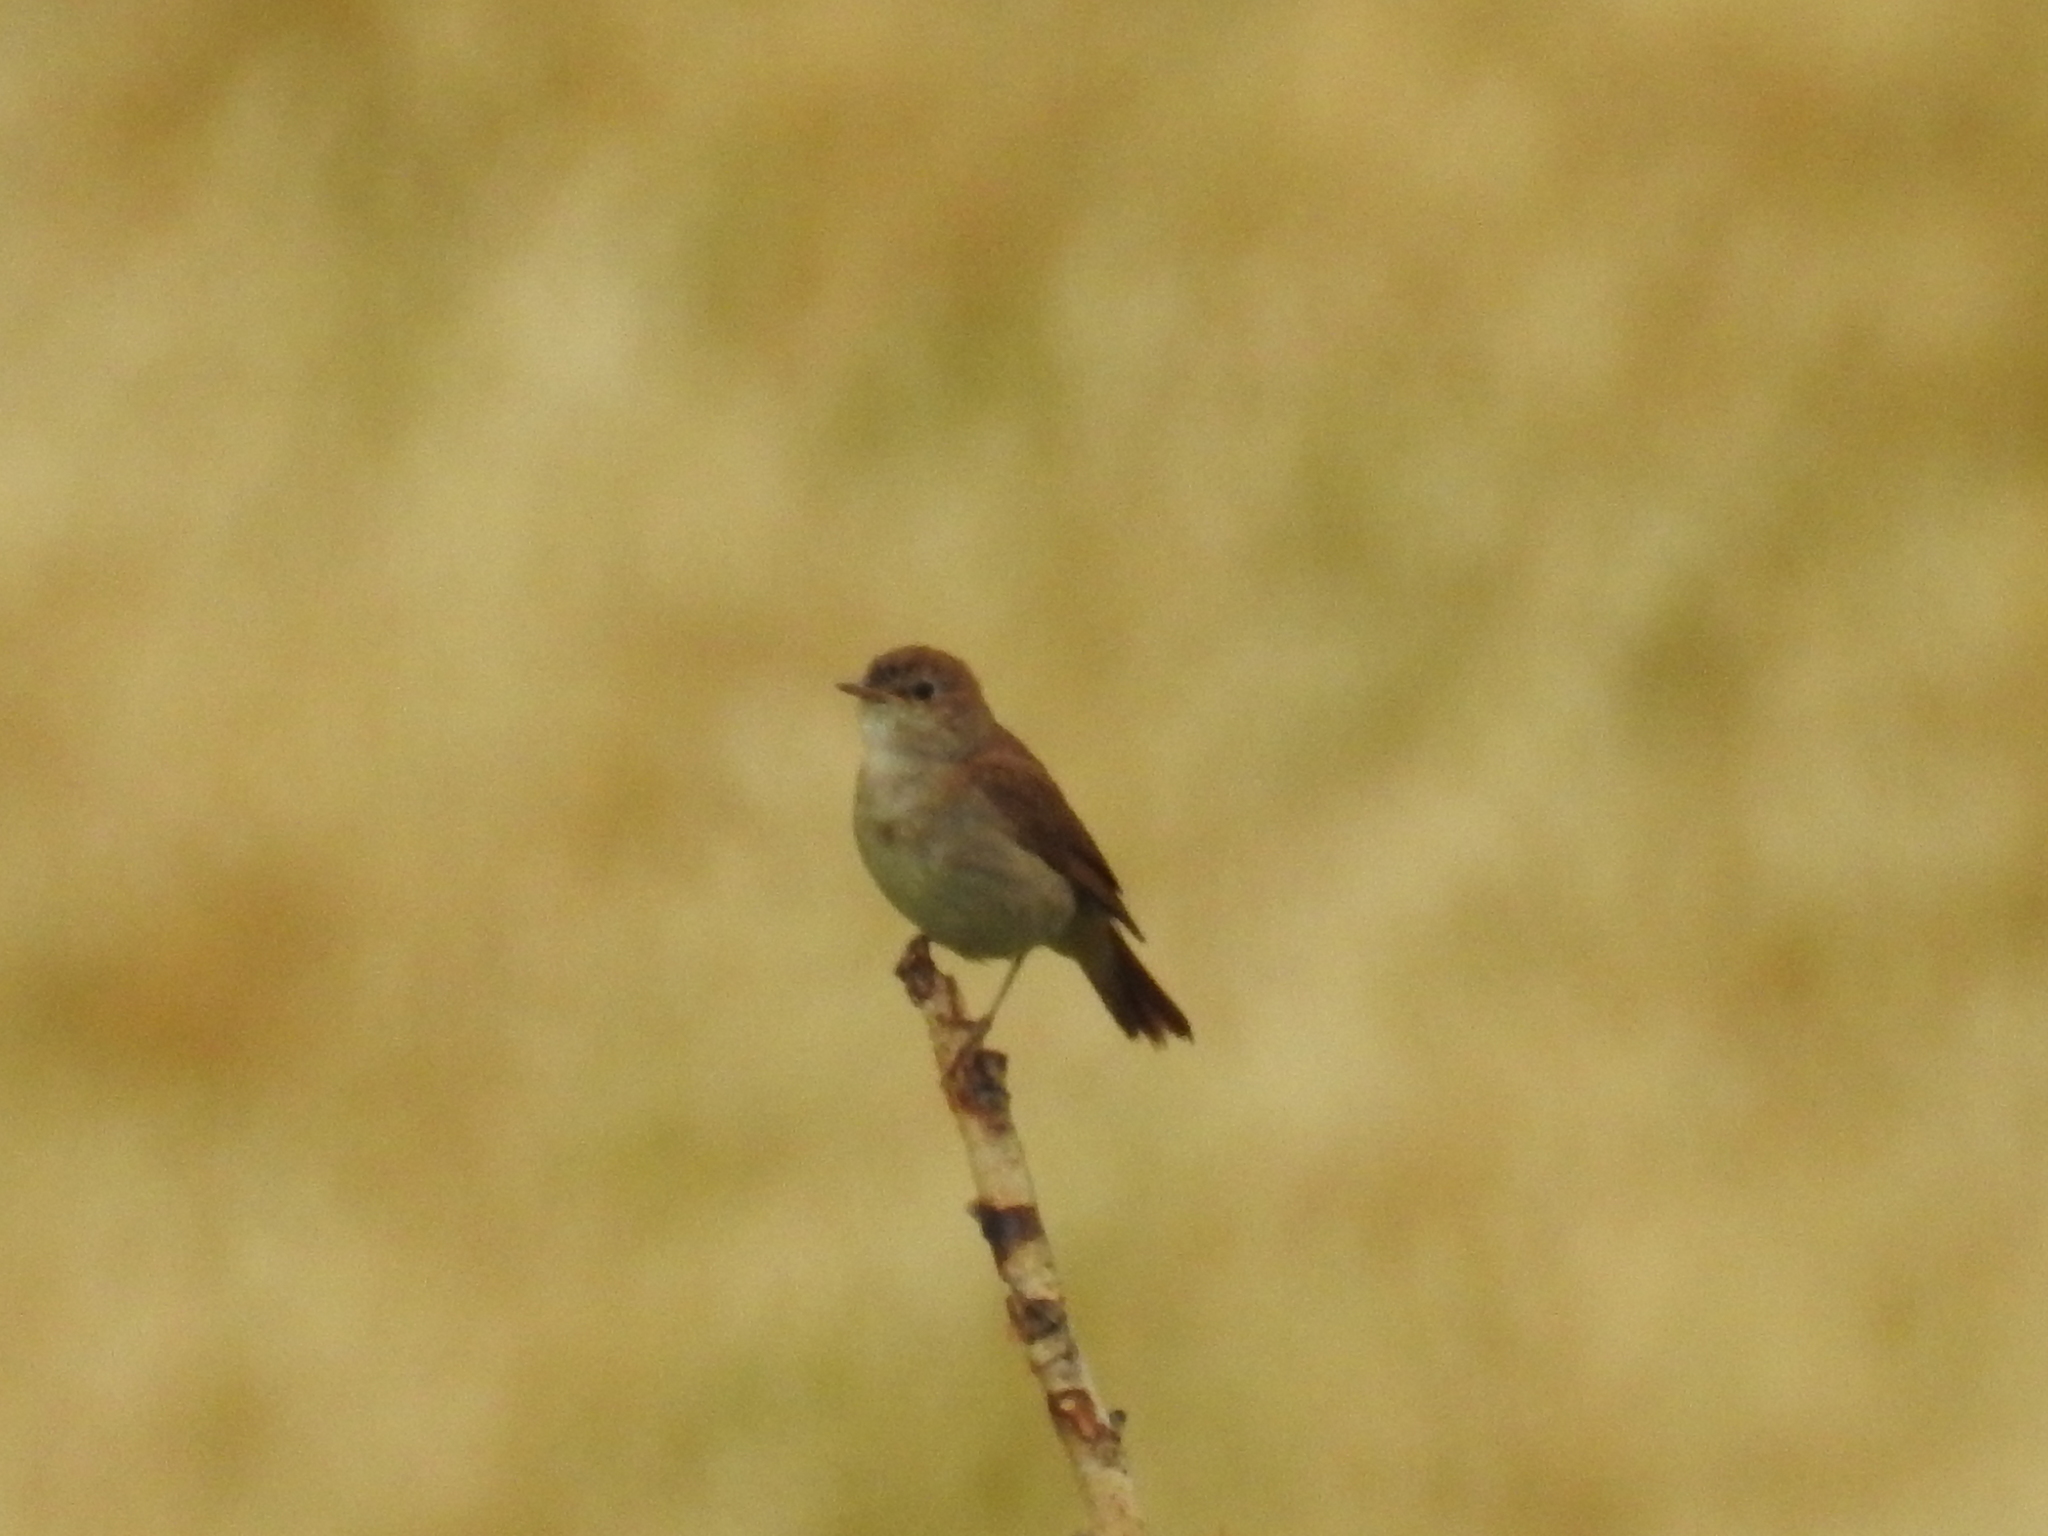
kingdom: Animalia
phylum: Chordata
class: Aves
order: Passeriformes
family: Muscicapidae
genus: Luscinia
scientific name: Luscinia megarhynchos
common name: Common nightingale
